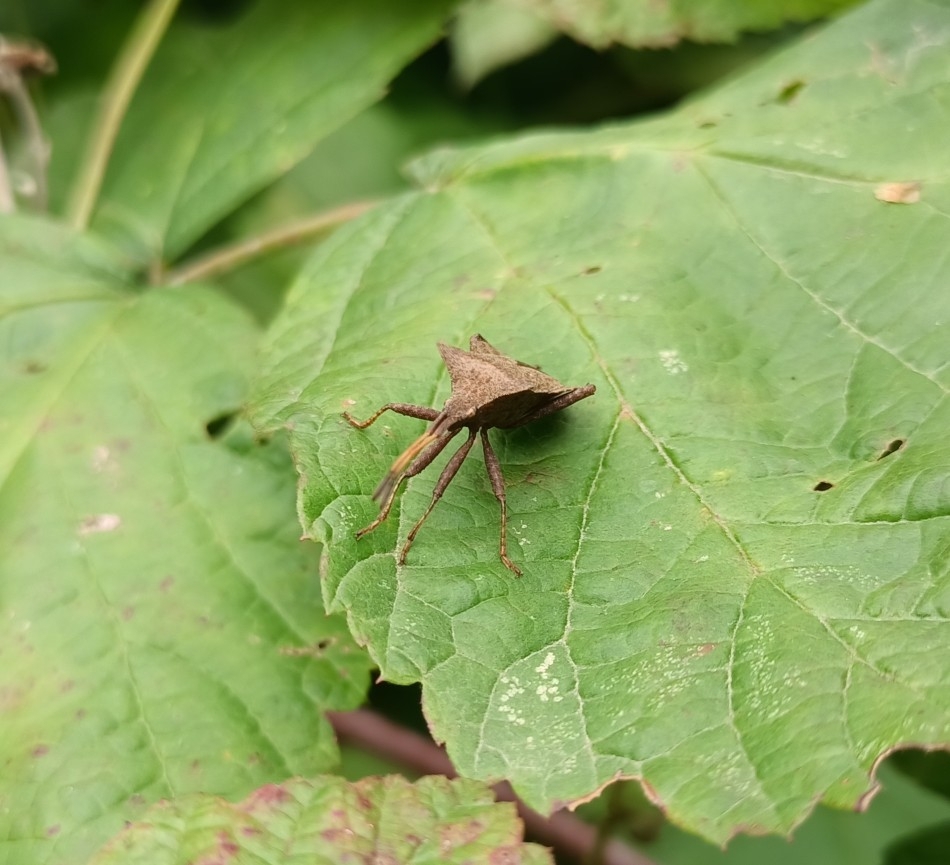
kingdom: Animalia
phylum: Arthropoda
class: Insecta
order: Hemiptera
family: Coreidae
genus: Coreus
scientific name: Coreus marginatus
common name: Dock bug
